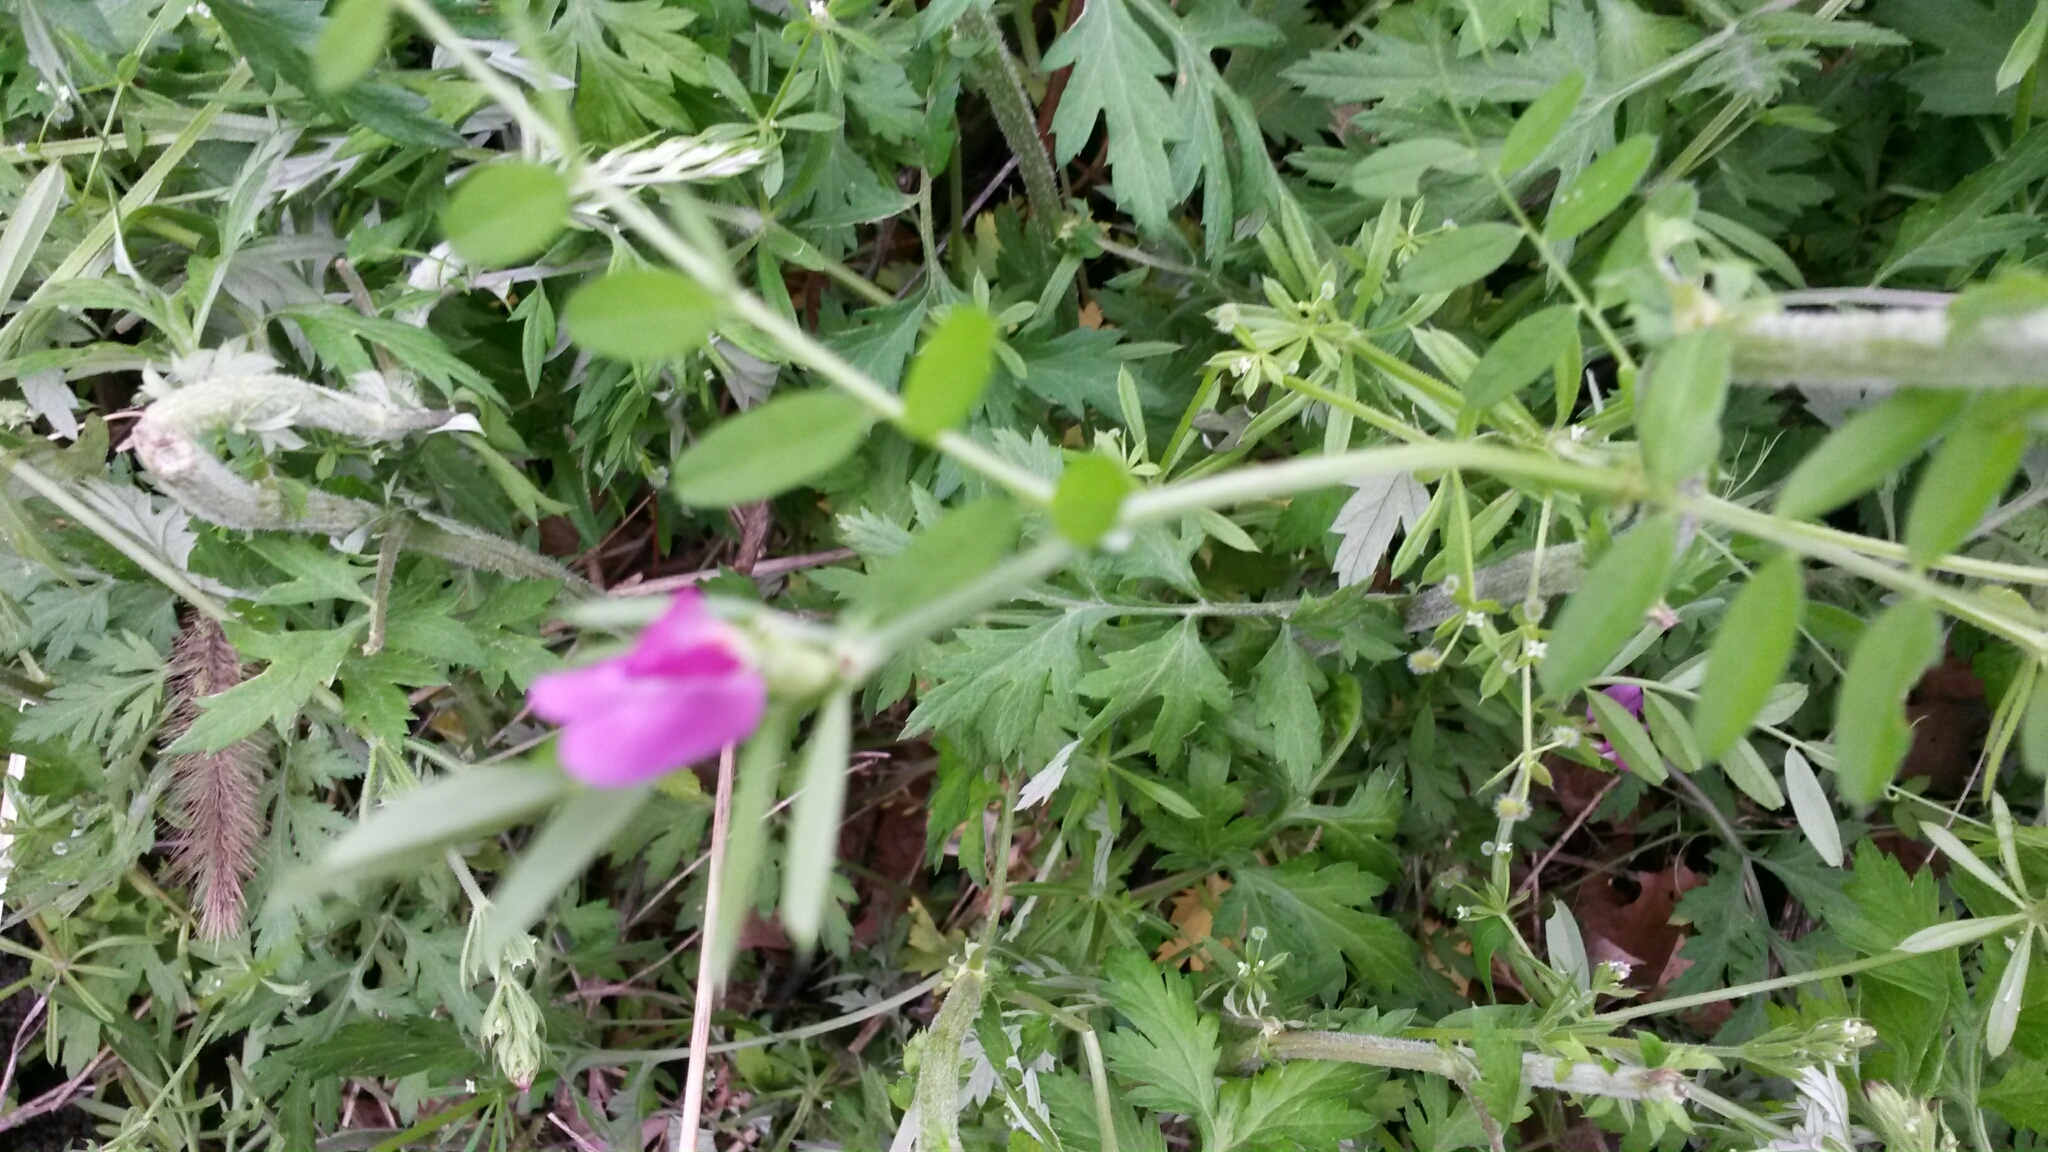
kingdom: Plantae
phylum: Tracheophyta
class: Magnoliopsida
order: Fabales
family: Fabaceae
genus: Vicia
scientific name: Vicia sativa
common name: Garden vetch
